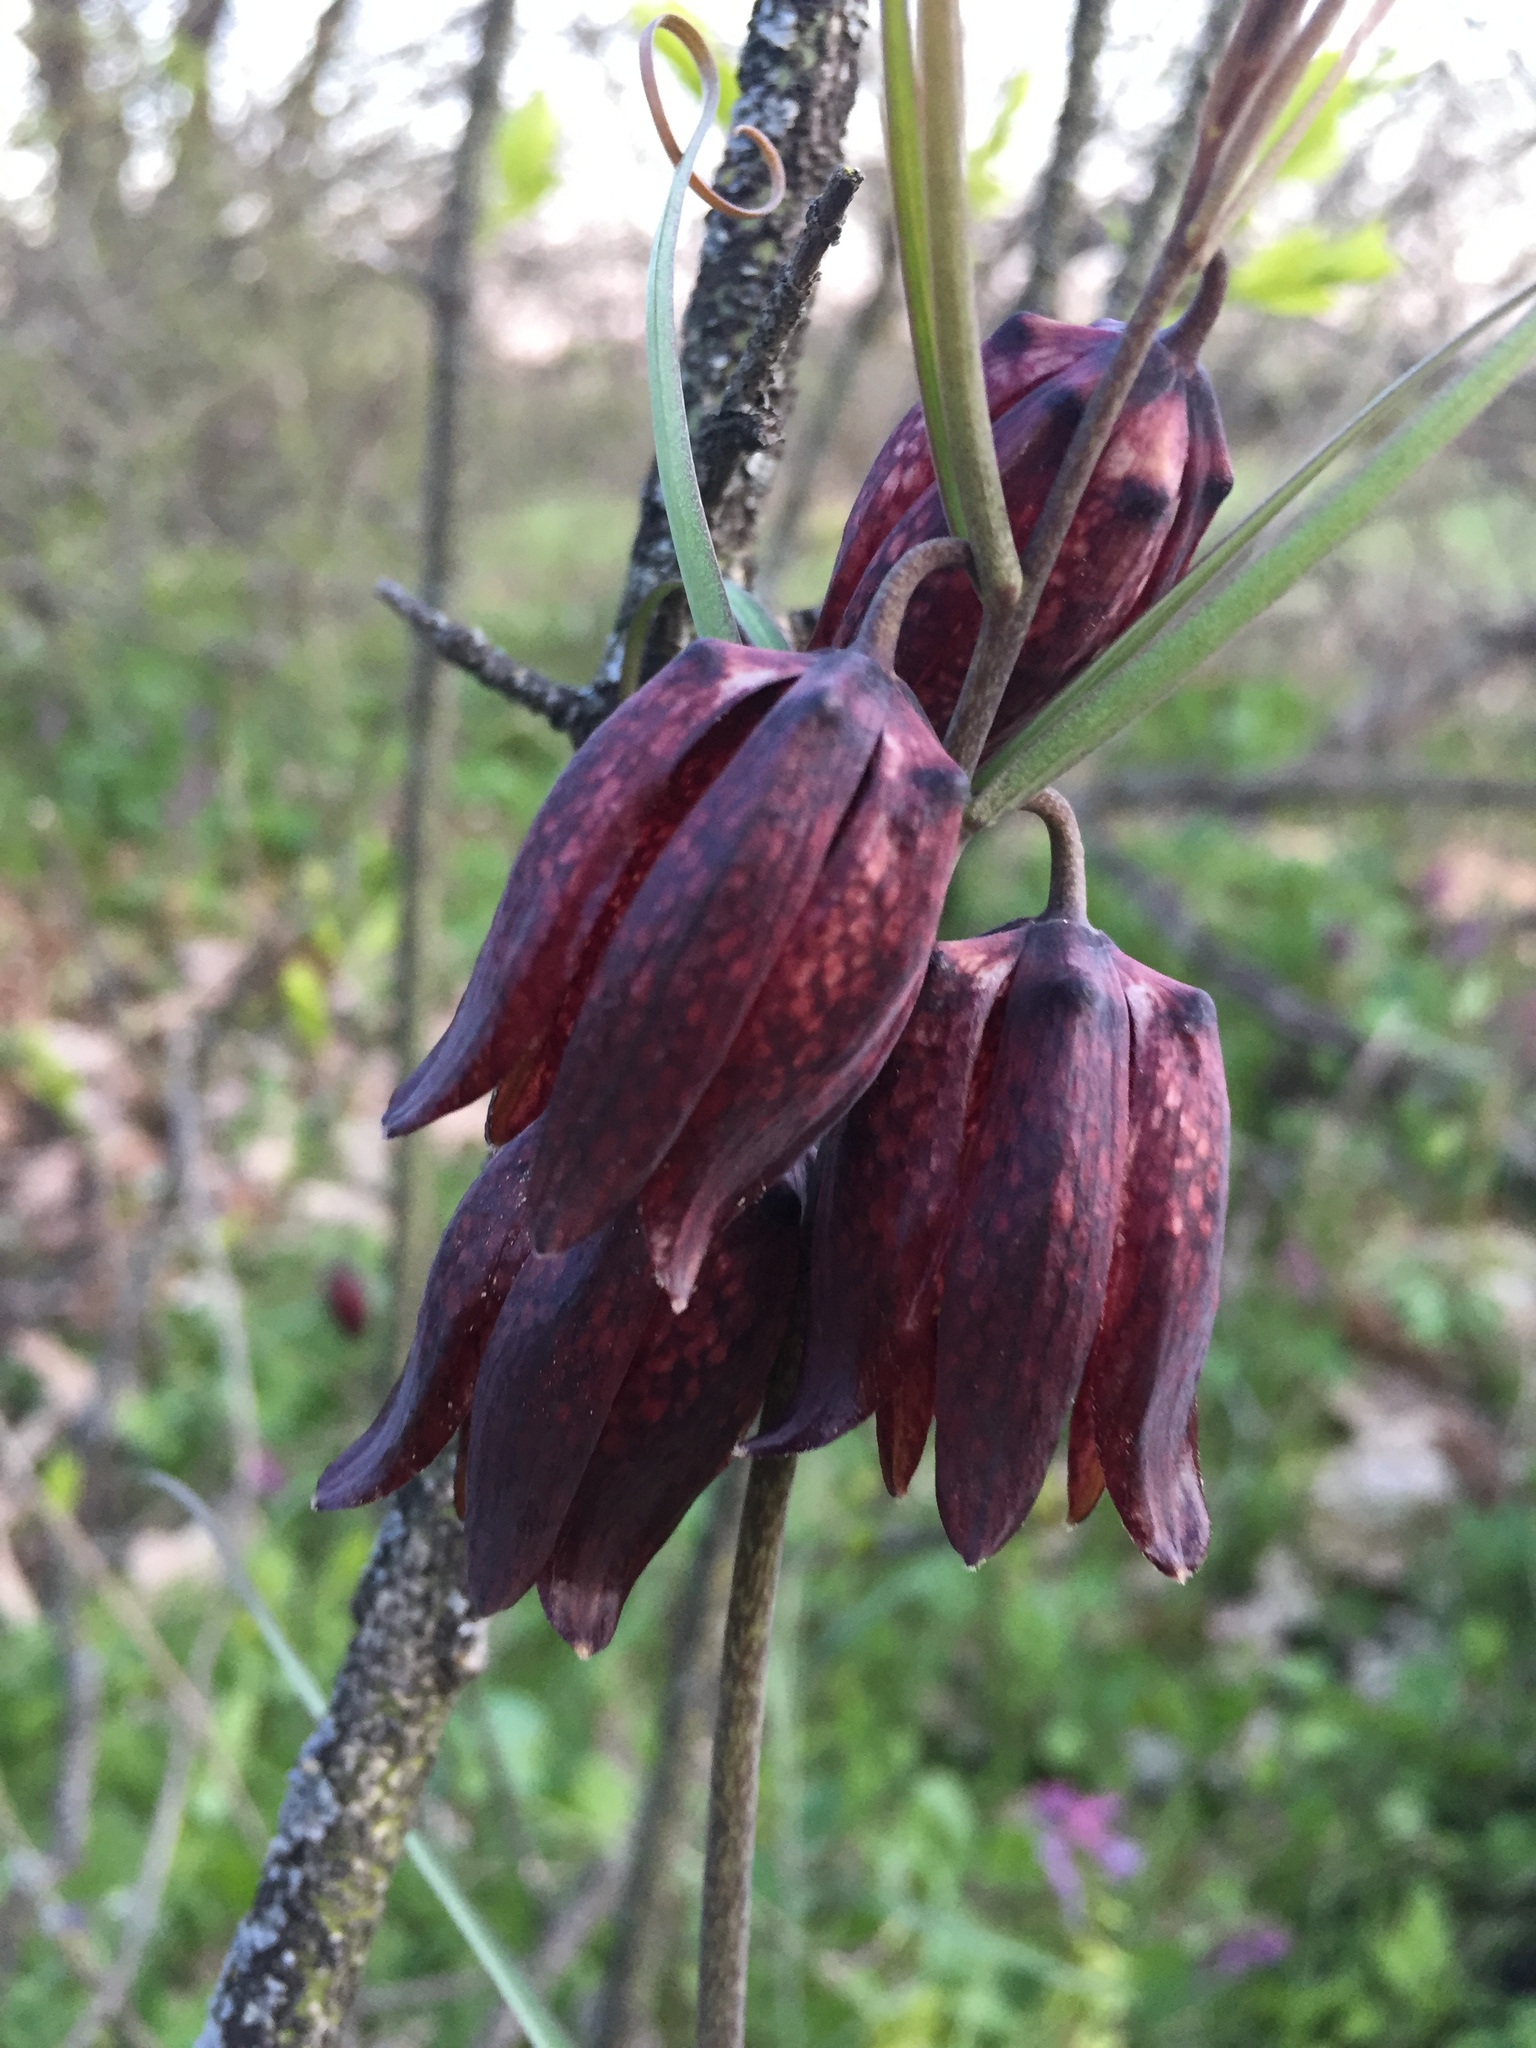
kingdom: Plantae
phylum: Tracheophyta
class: Liliopsida
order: Liliales
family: Liliaceae
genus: Fritillaria
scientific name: Fritillaria ruthenica
